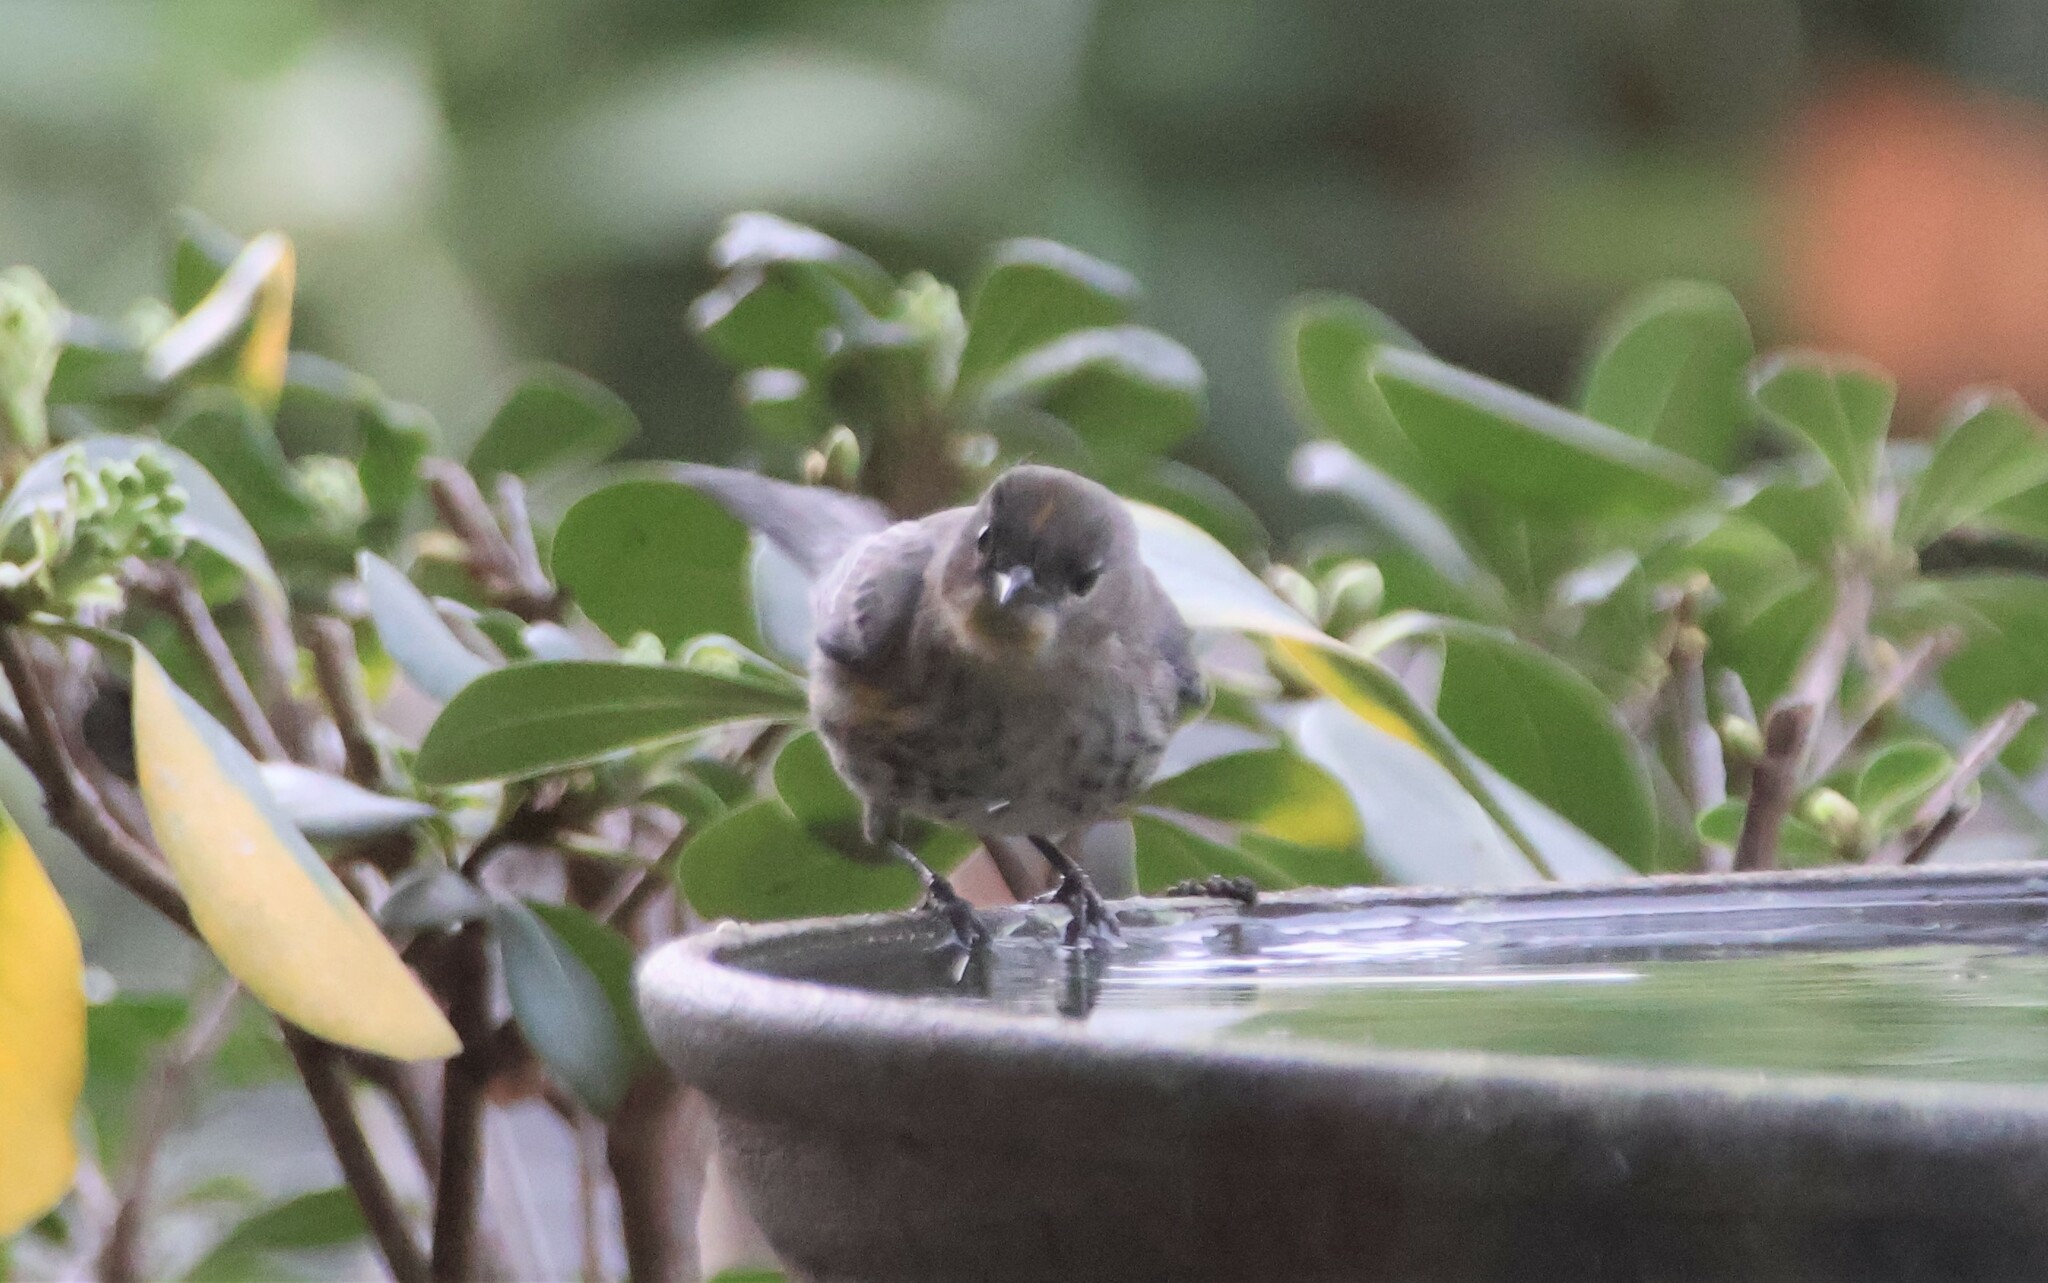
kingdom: Animalia
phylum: Chordata
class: Aves
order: Passeriformes
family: Parulidae
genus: Setophaga
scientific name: Setophaga auduboni
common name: Audubon's warbler
